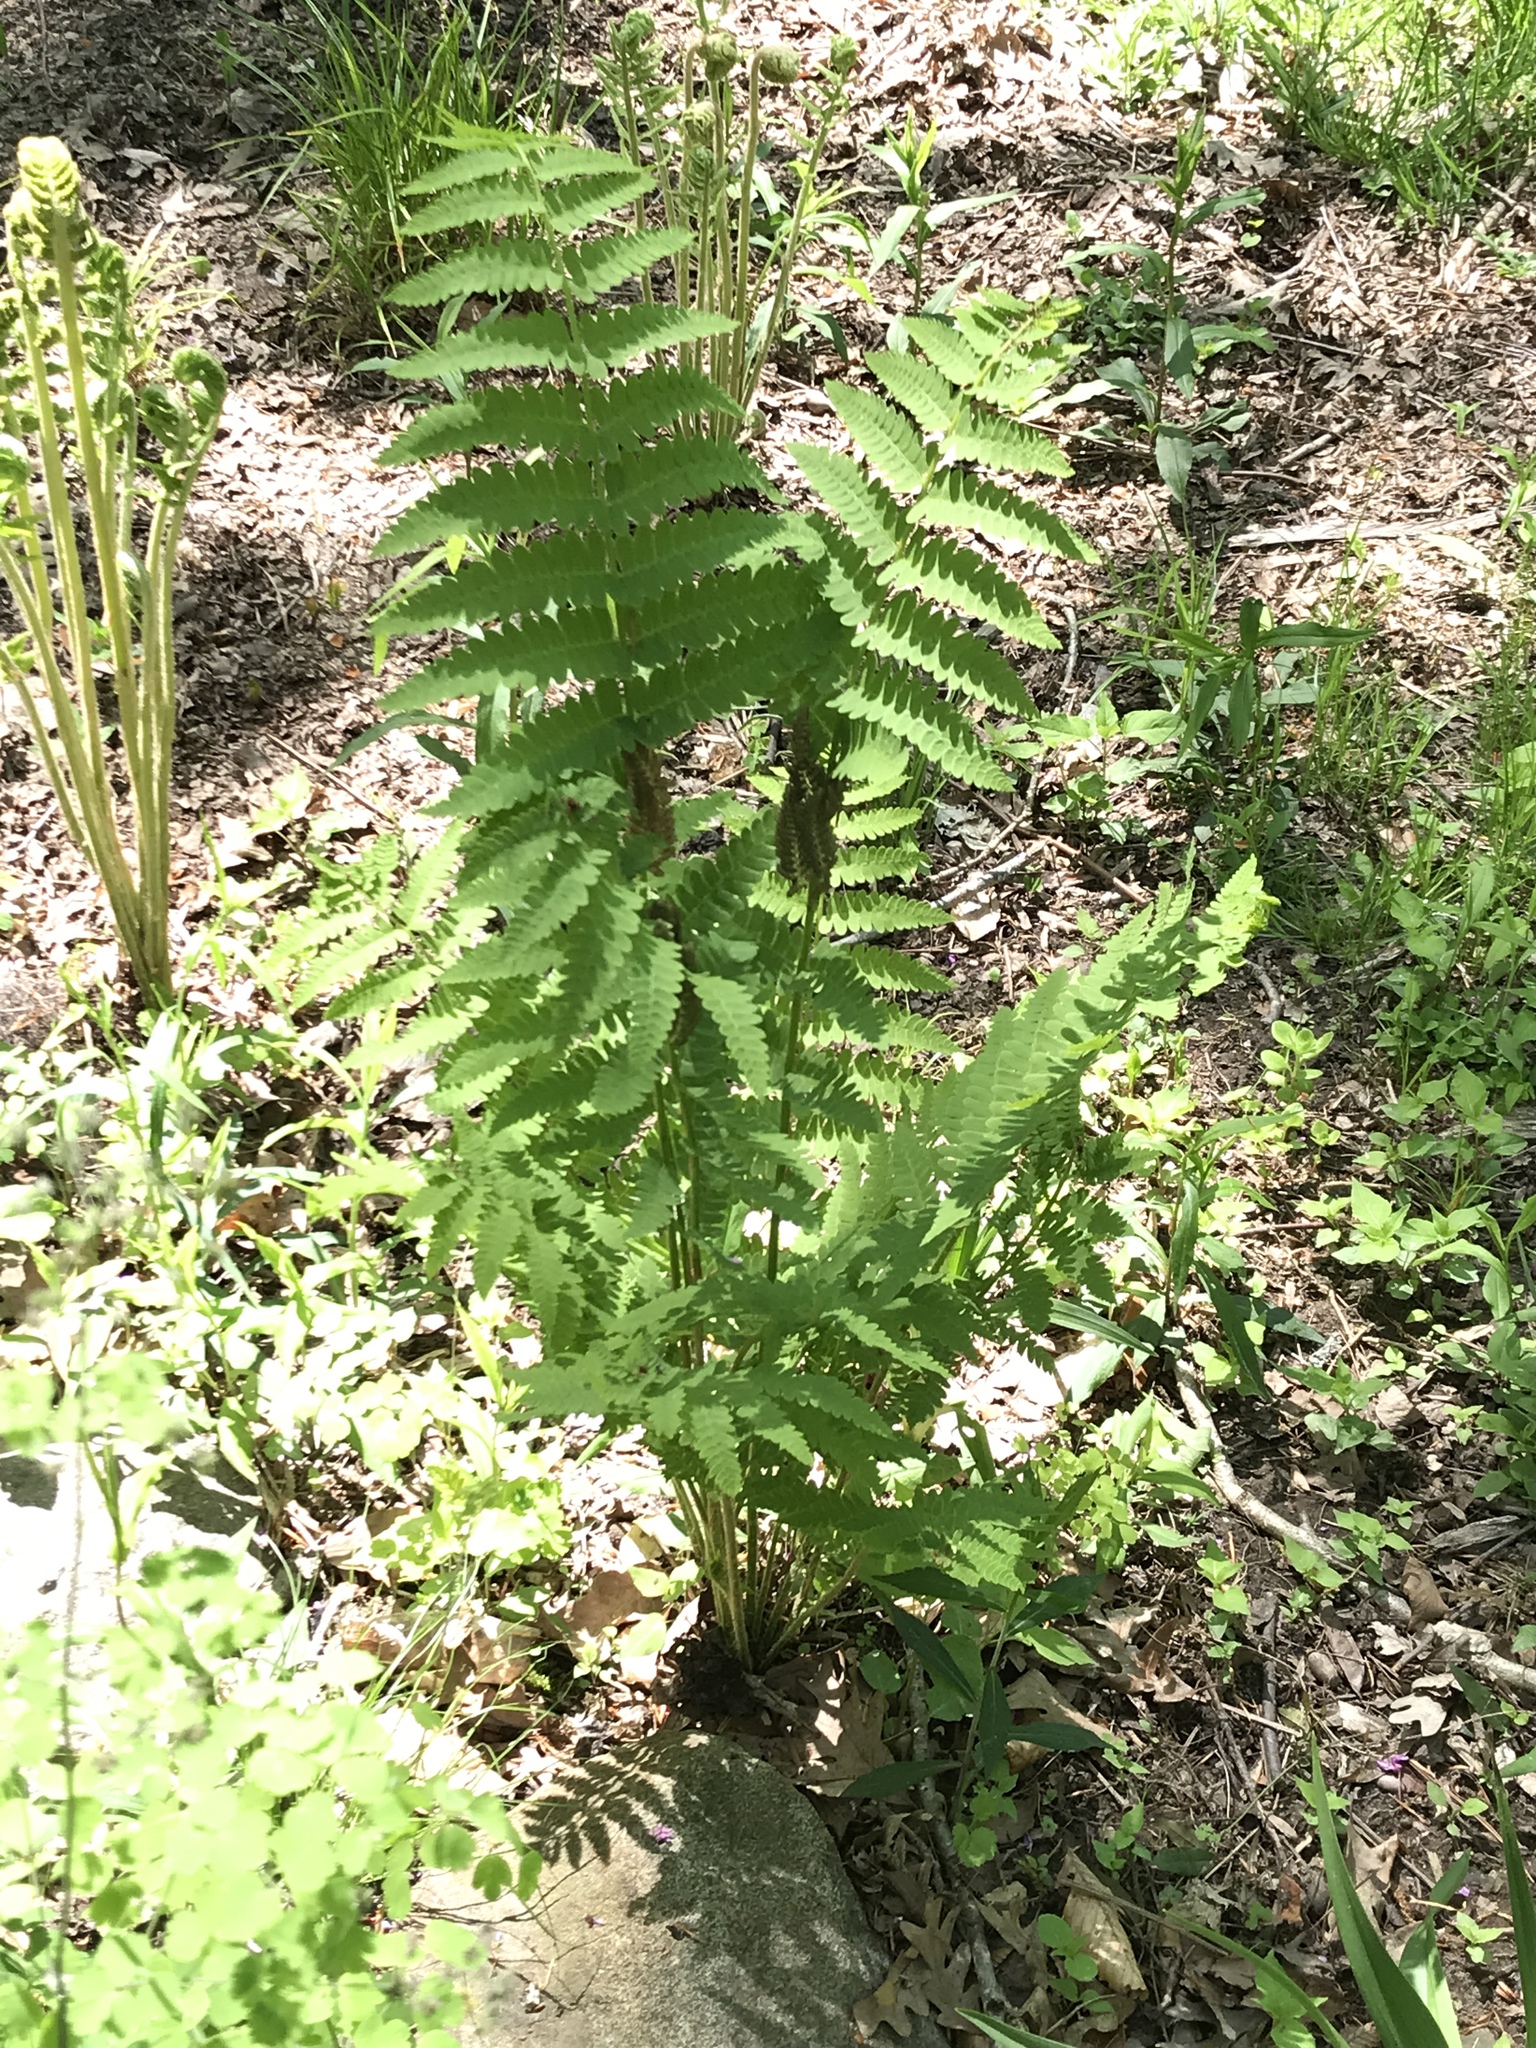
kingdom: Plantae
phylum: Tracheophyta
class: Polypodiopsida
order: Osmundales
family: Osmundaceae
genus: Claytosmunda
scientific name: Claytosmunda claytoniana
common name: Clayton's fern
